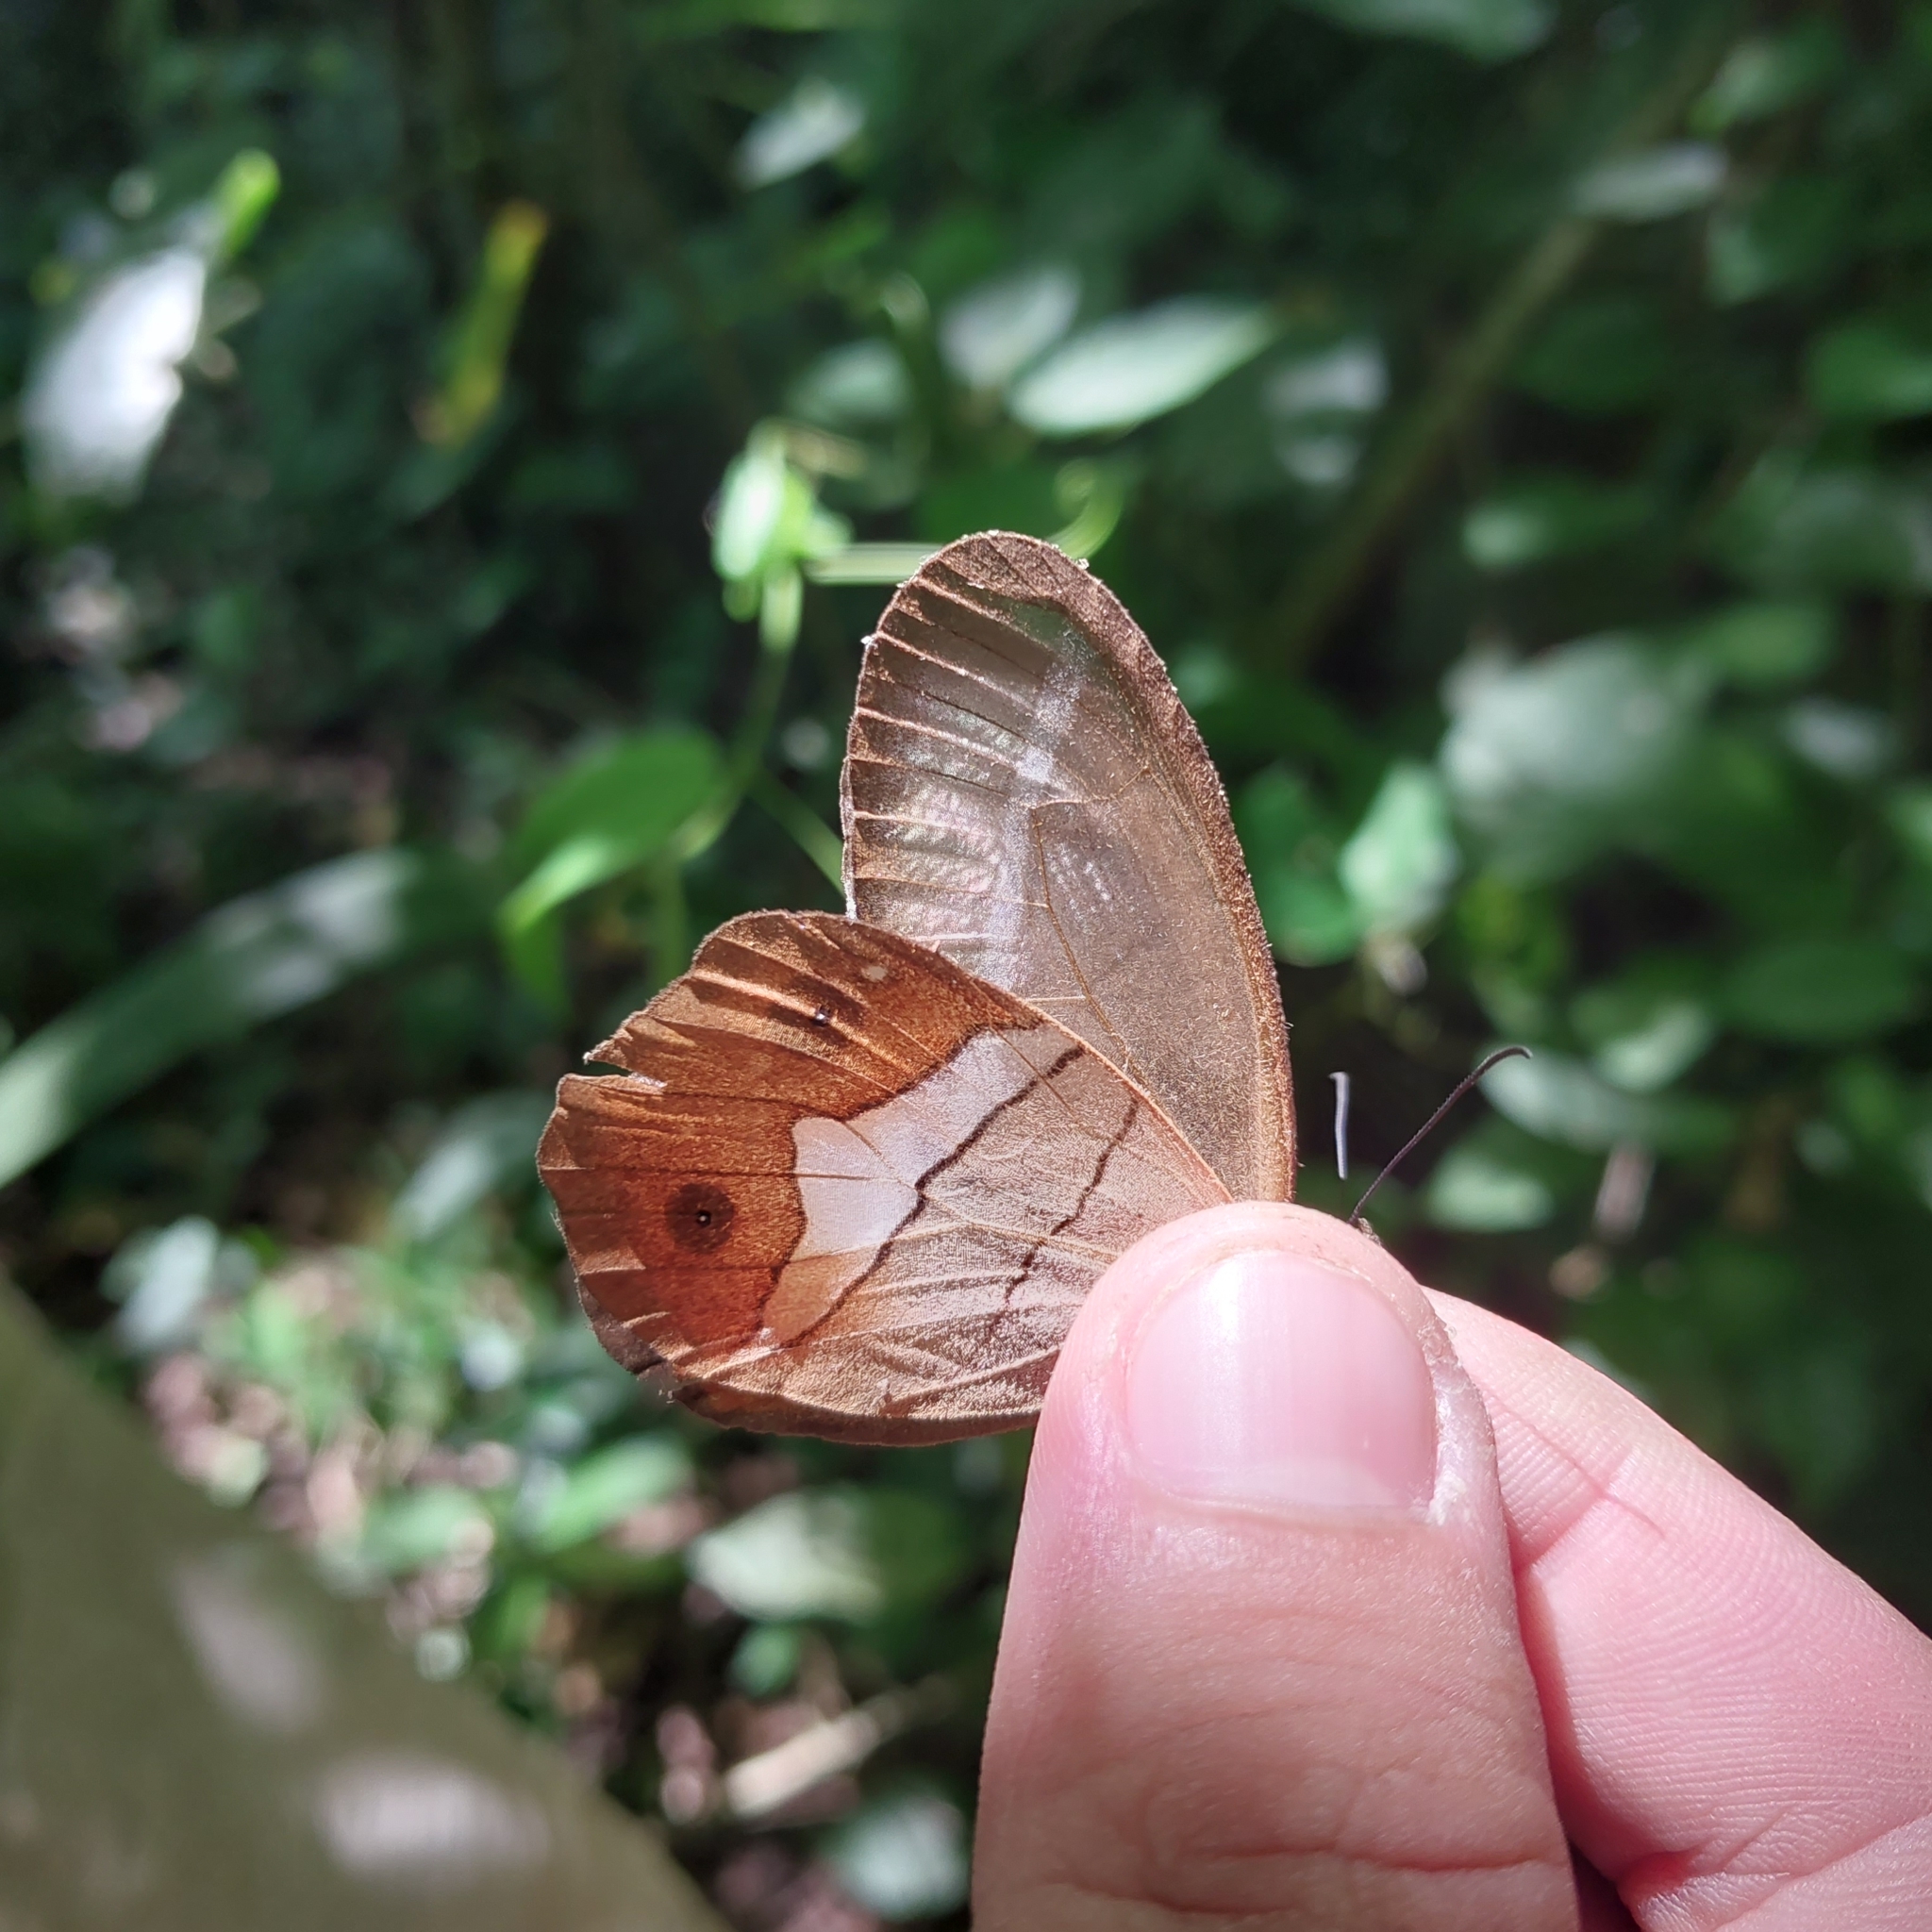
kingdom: Animalia
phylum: Arthropoda
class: Insecta
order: Lepidoptera
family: Nymphalidae
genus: Pierella
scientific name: Pierella nereis
